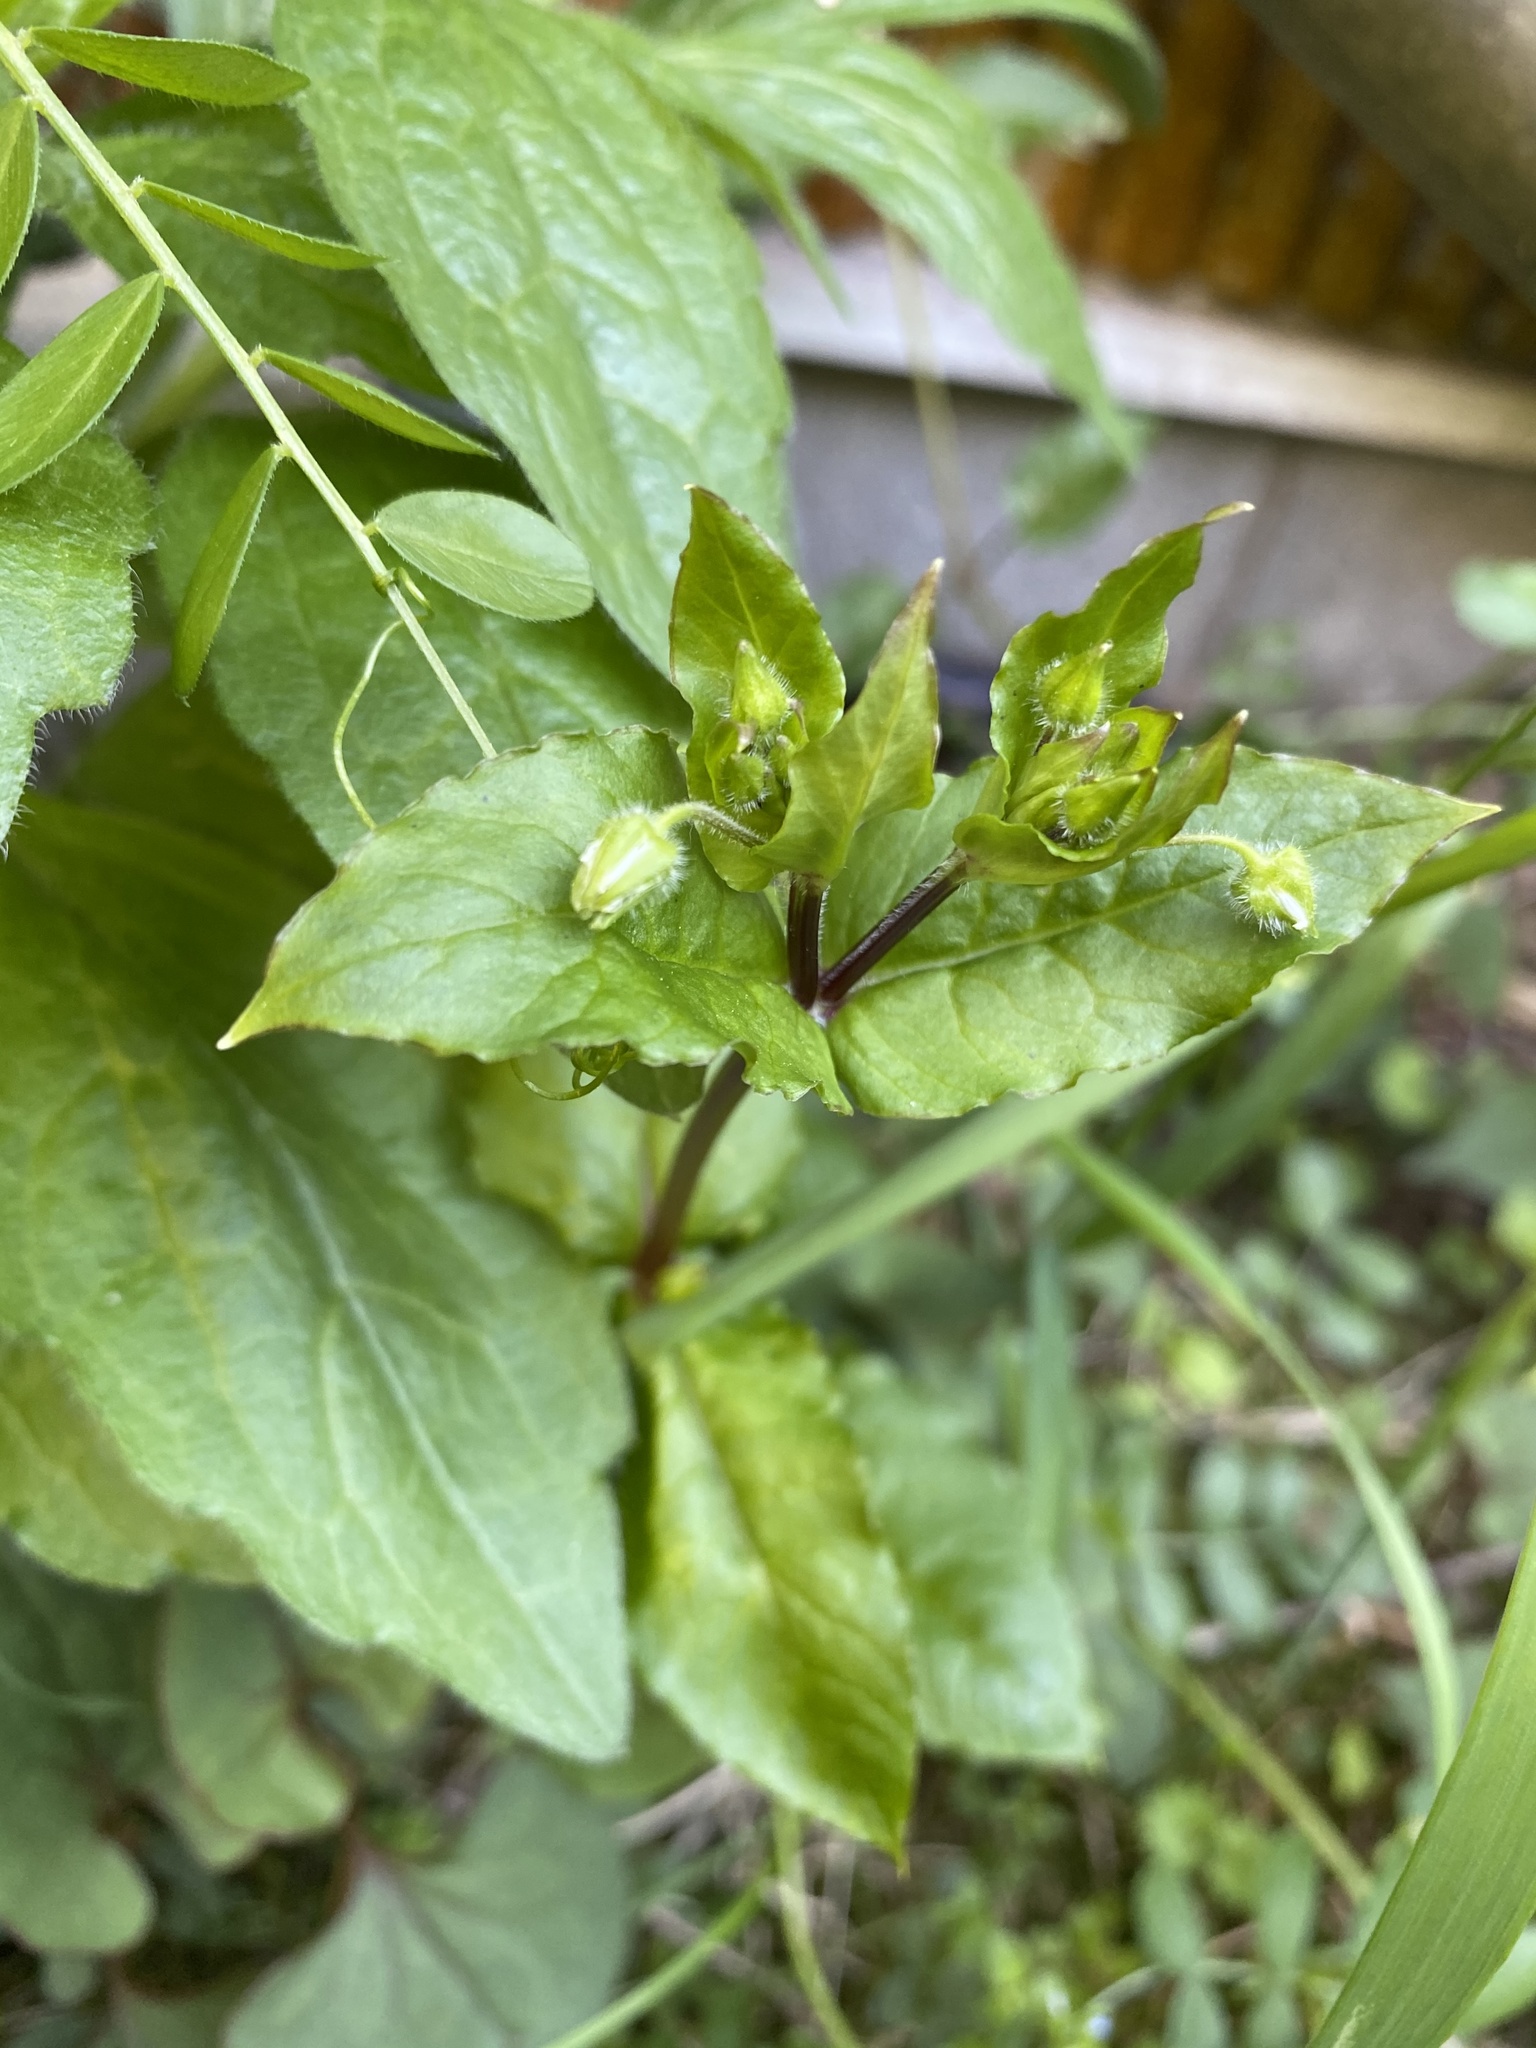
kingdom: Plantae
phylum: Tracheophyta
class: Magnoliopsida
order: Caryophyllales
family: Caryophyllaceae
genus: Stellaria
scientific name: Stellaria aquatica
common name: Water chickweed
